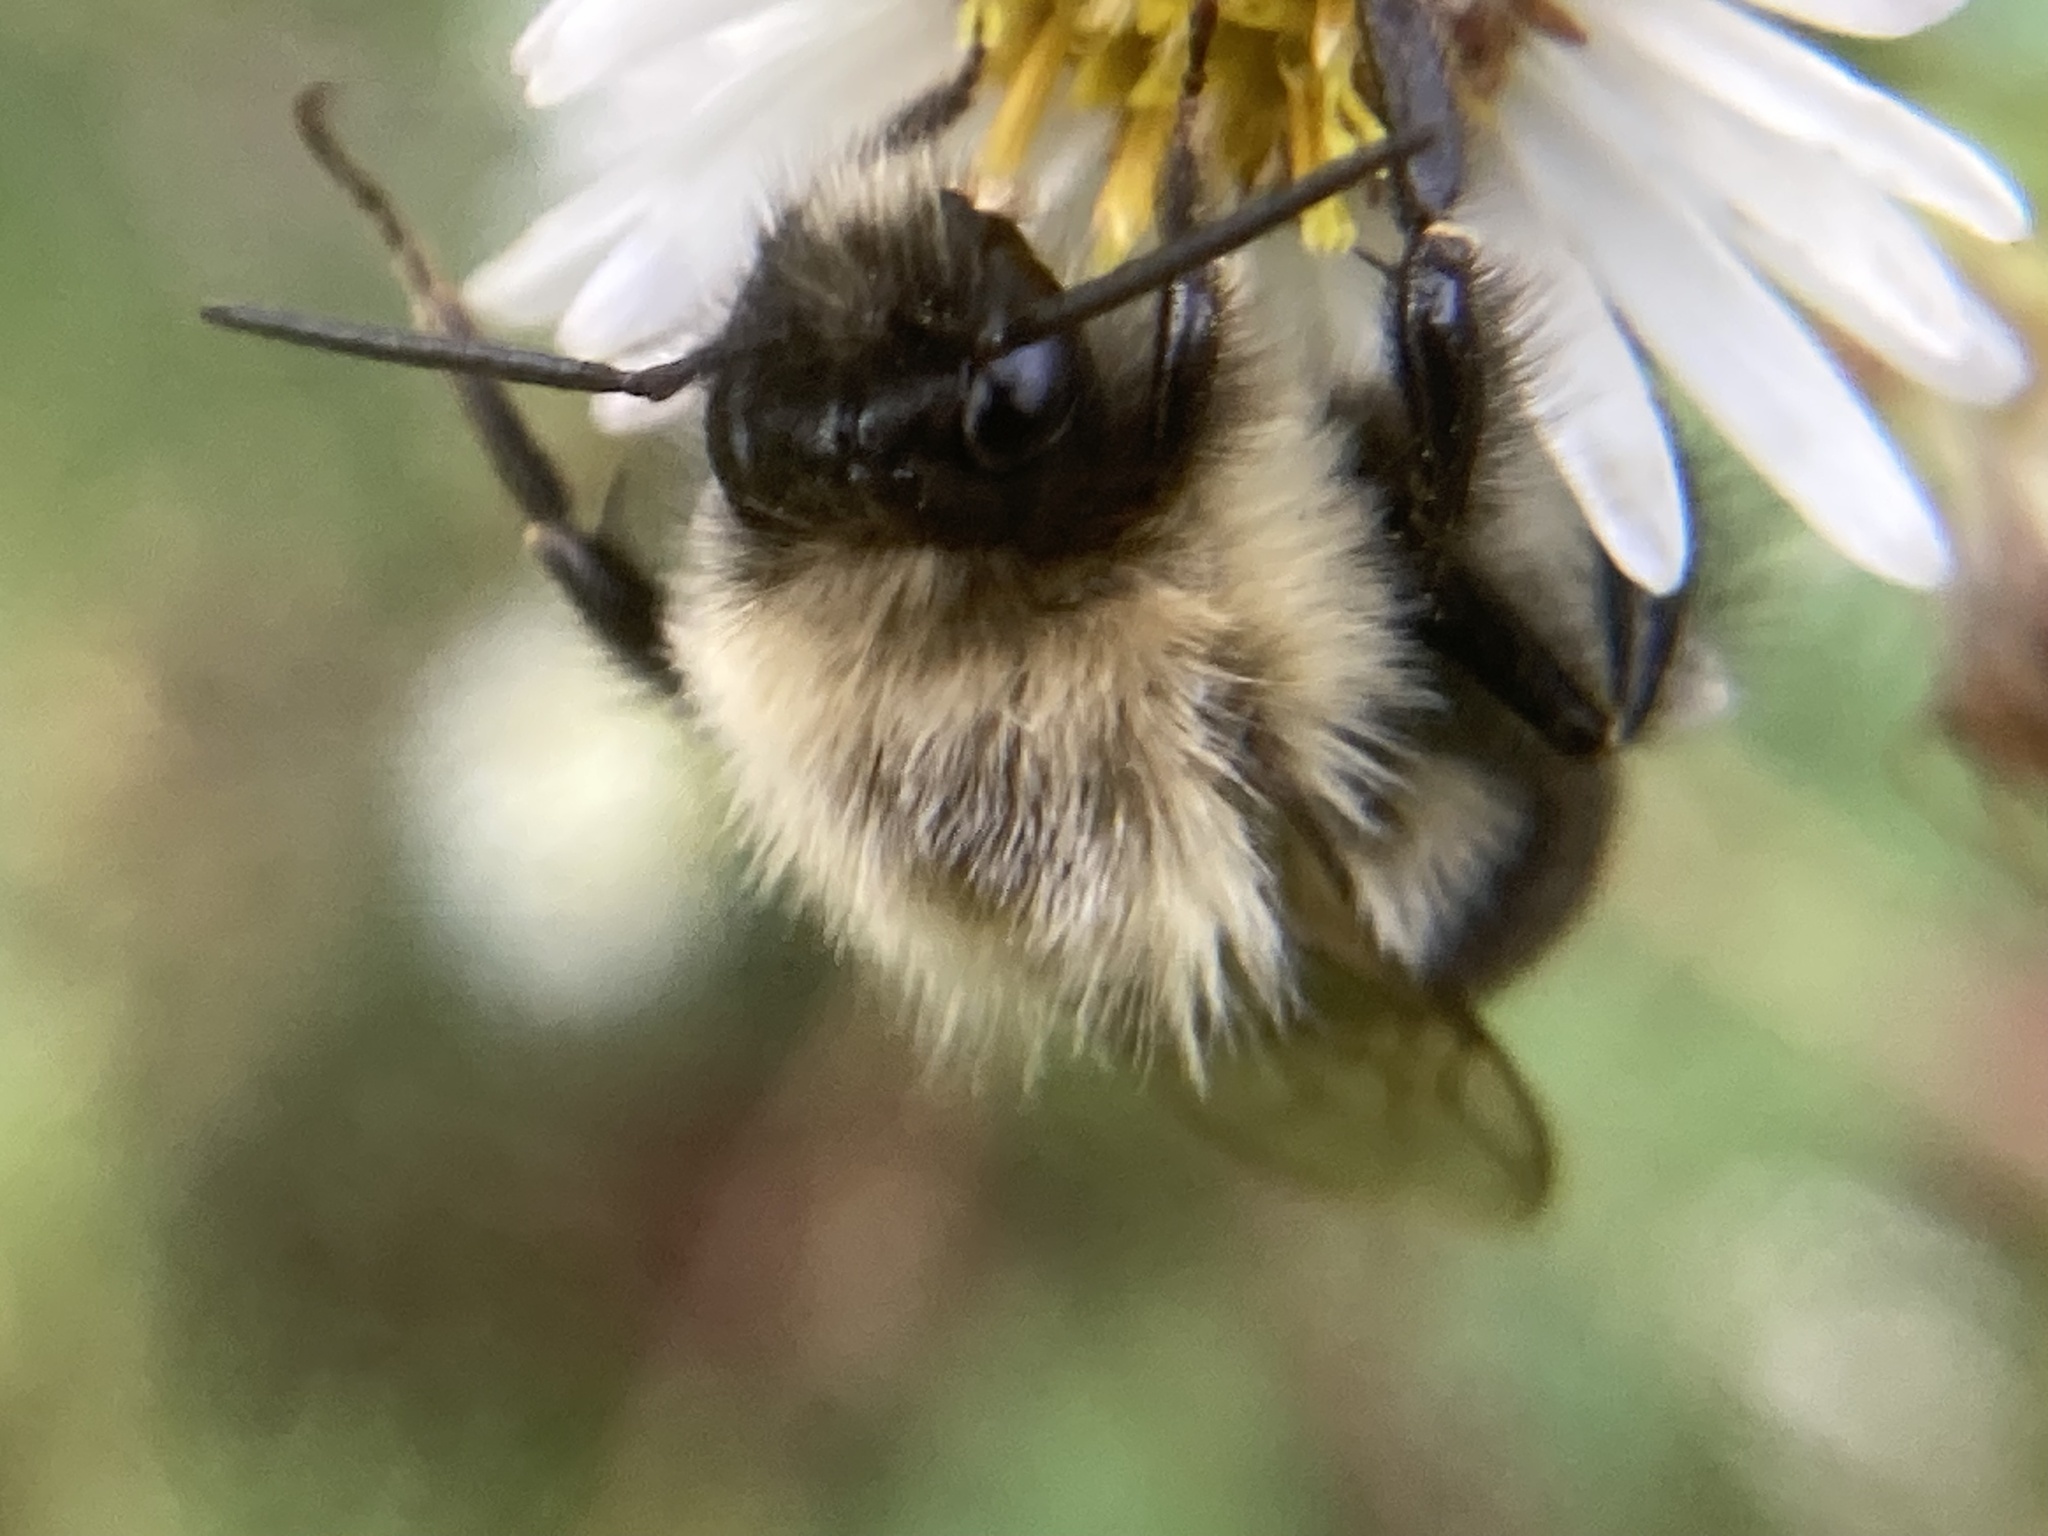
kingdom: Animalia
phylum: Arthropoda
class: Insecta
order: Hymenoptera
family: Apidae
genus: Bombus
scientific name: Bombus impatiens
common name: Common eastern bumble bee
